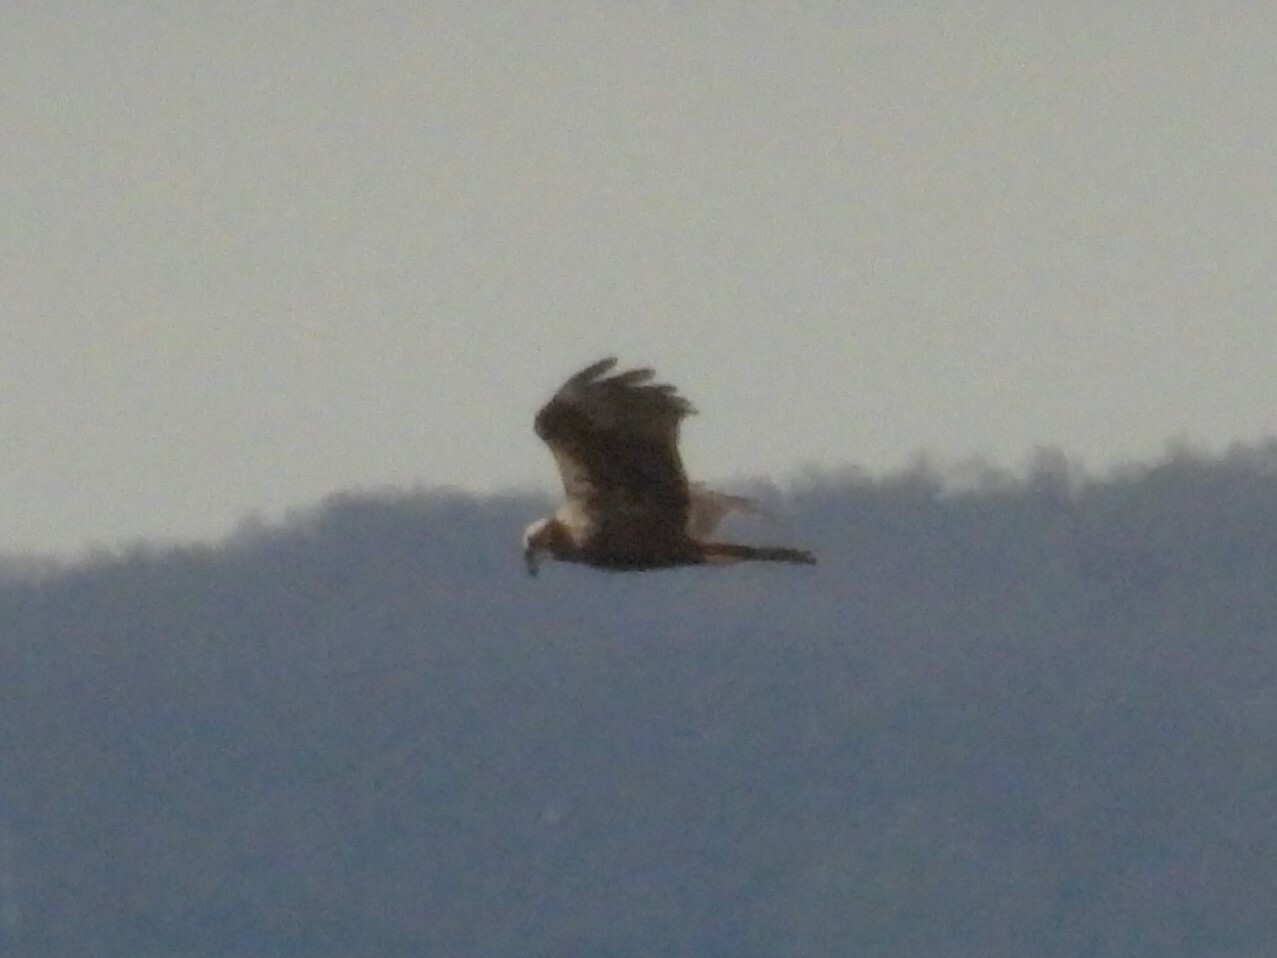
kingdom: Animalia
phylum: Chordata
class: Aves
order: Accipitriformes
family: Accipitridae
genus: Circus
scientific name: Circus aeruginosus
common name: Western marsh harrier
